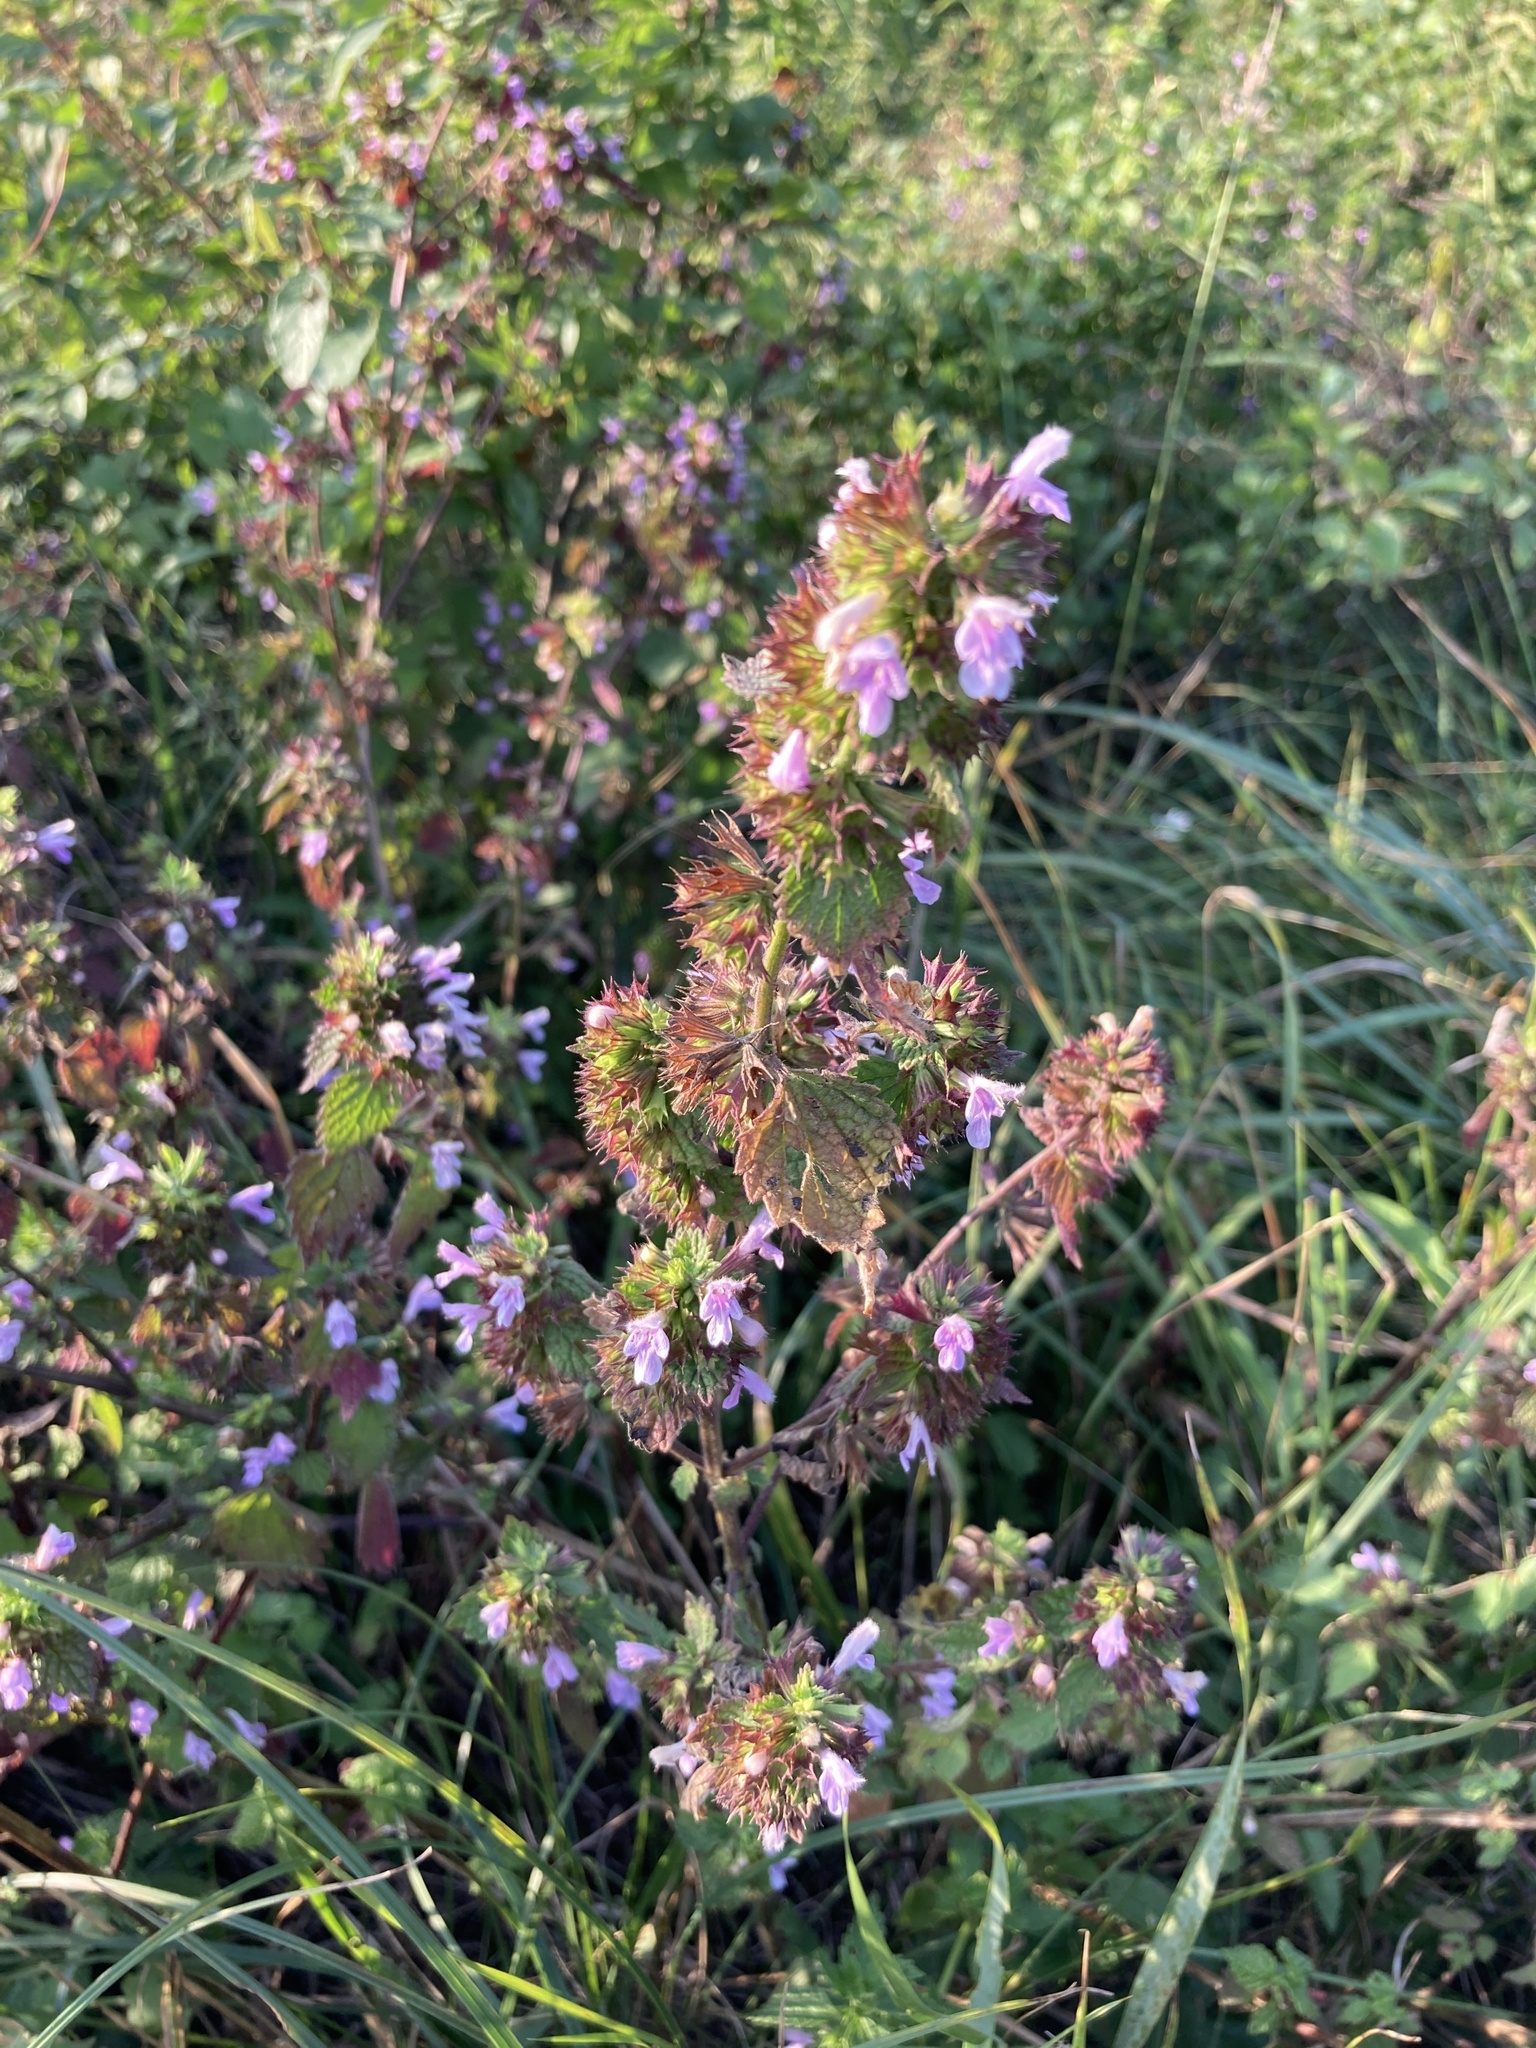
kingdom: Plantae
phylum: Tracheophyta
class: Magnoliopsida
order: Lamiales
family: Lamiaceae
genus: Ballota
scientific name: Ballota nigra
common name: Black horehound
